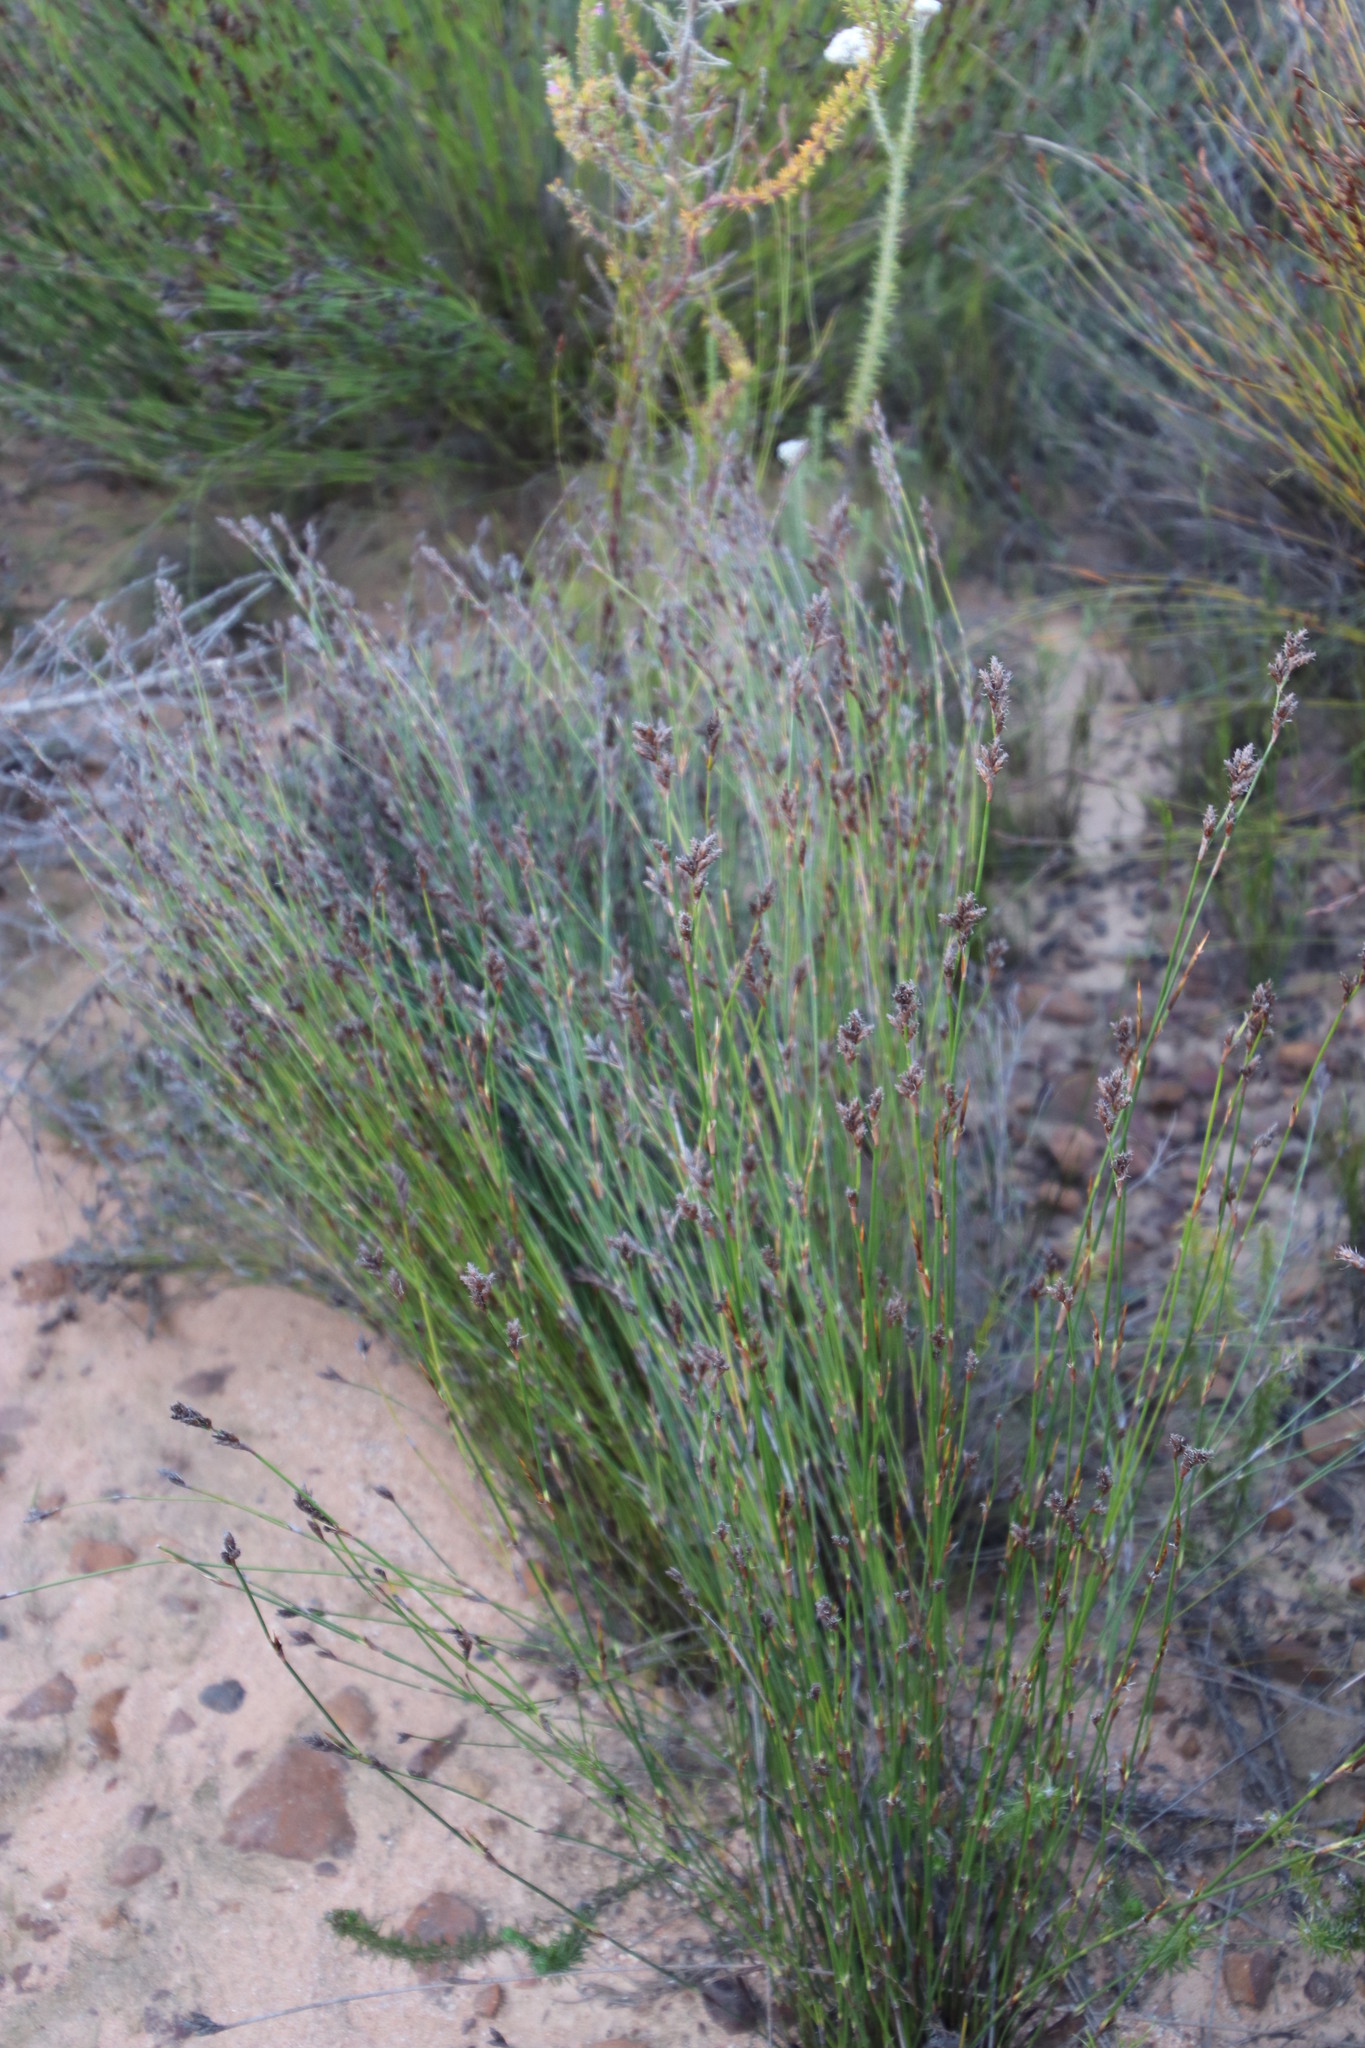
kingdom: Plantae
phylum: Tracheophyta
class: Liliopsida
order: Poales
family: Restionaceae
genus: Restio
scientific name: Restio capensis
